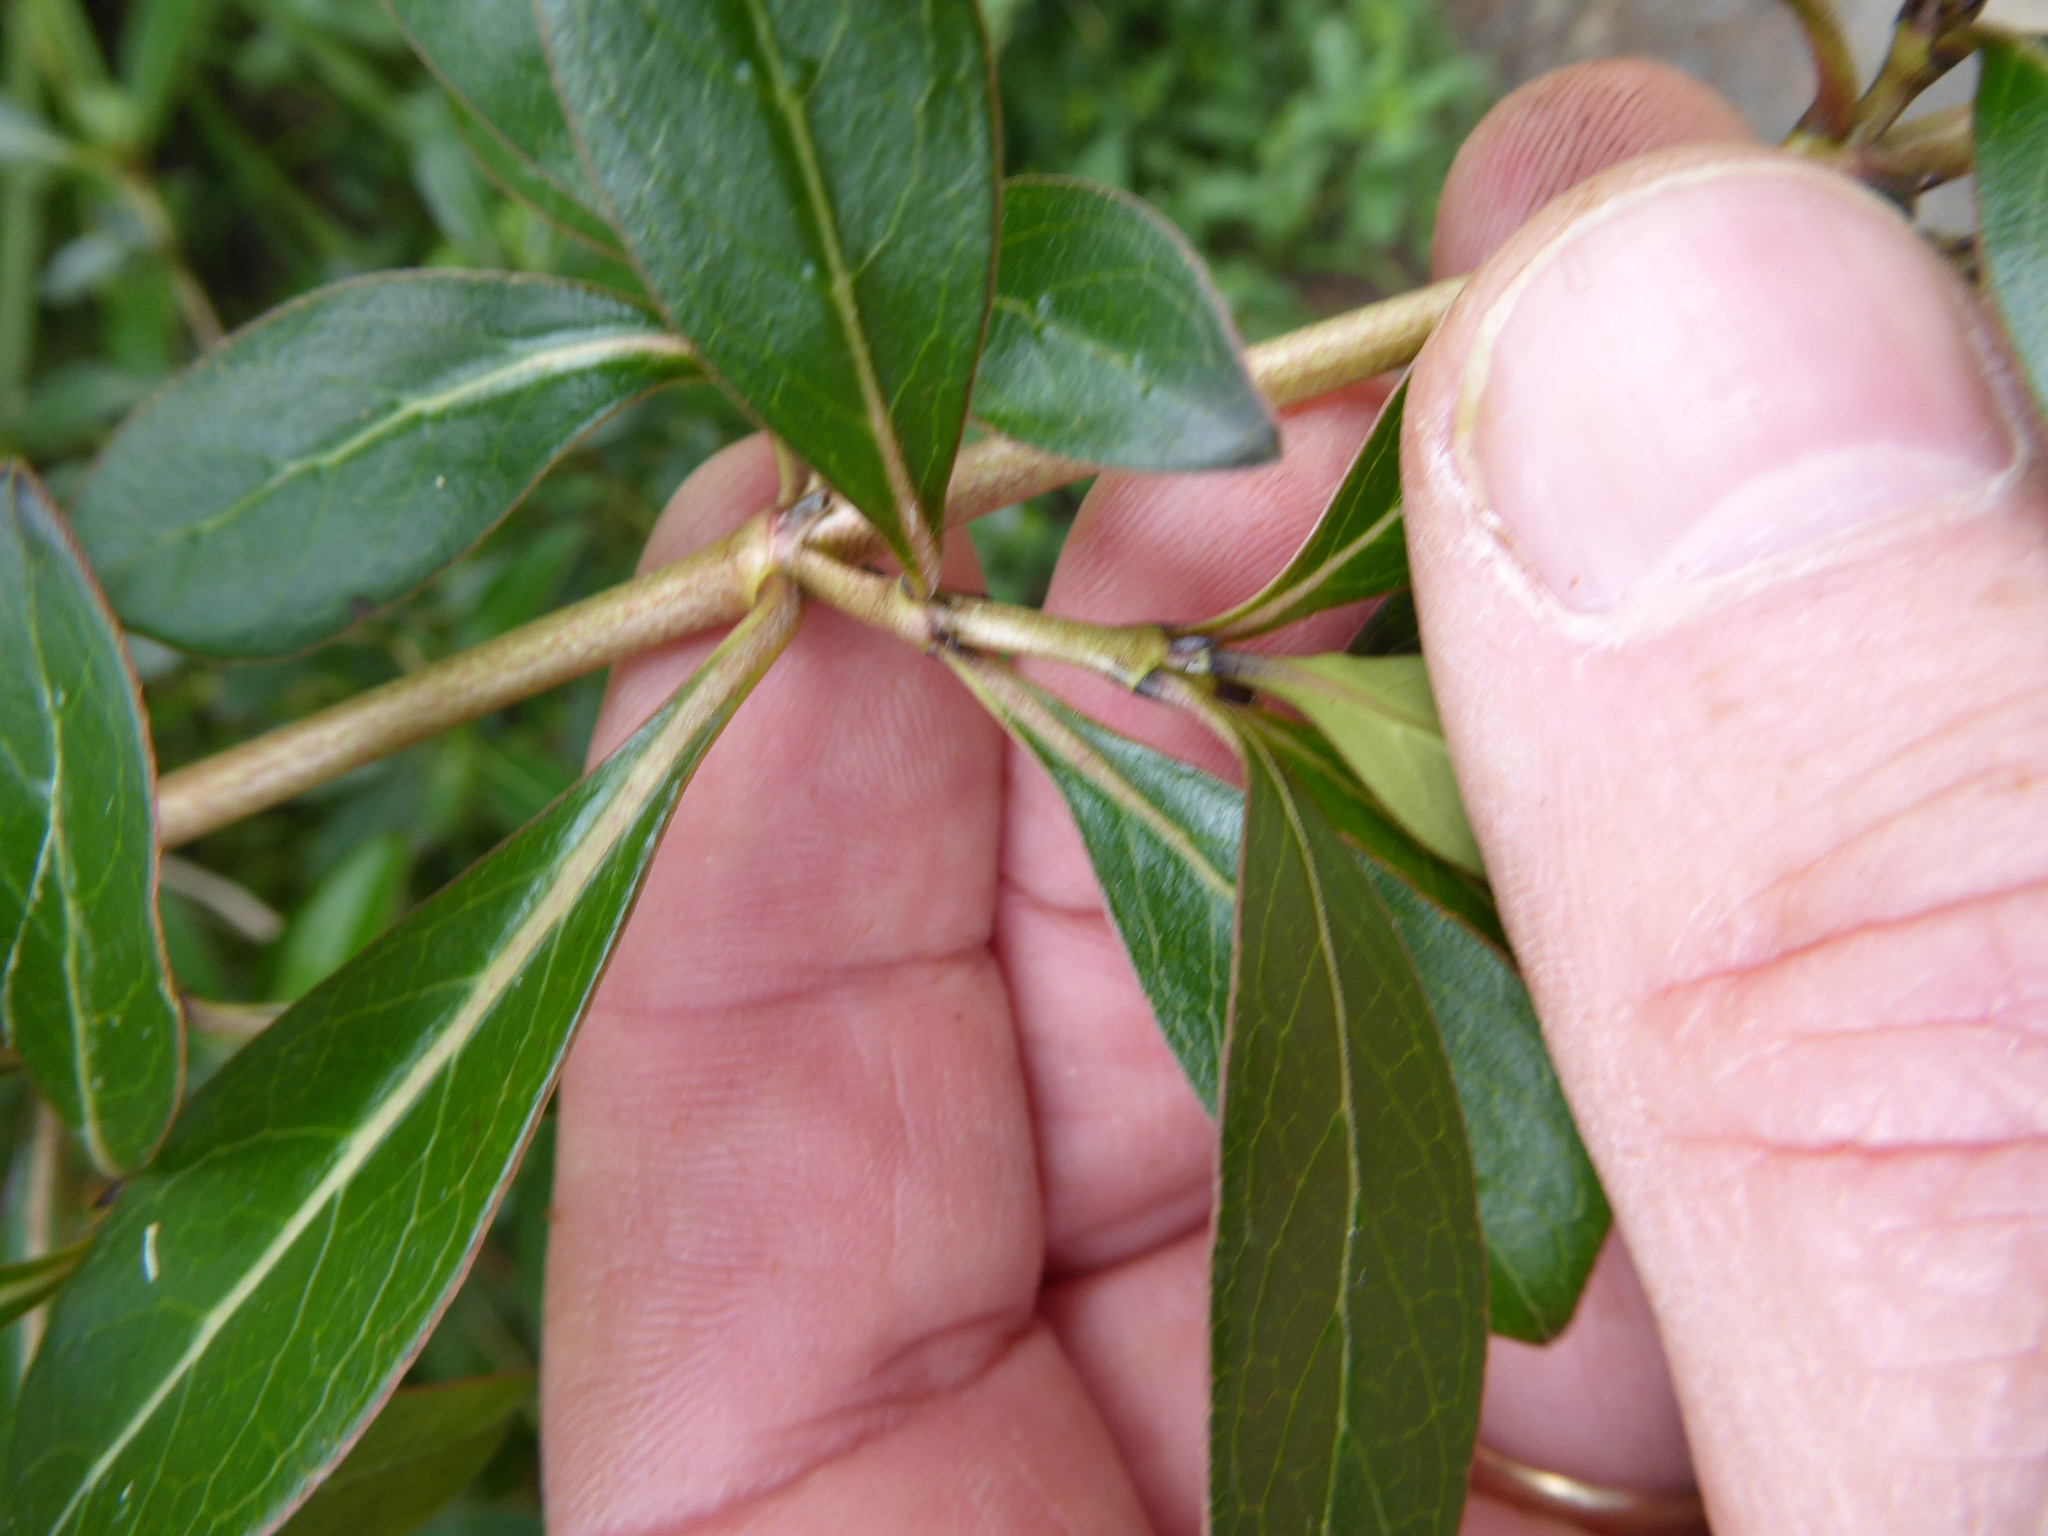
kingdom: Plantae
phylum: Tracheophyta
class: Magnoliopsida
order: Gentianales
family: Rubiaceae
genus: Coprosma
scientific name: Coprosma cunninghamii
